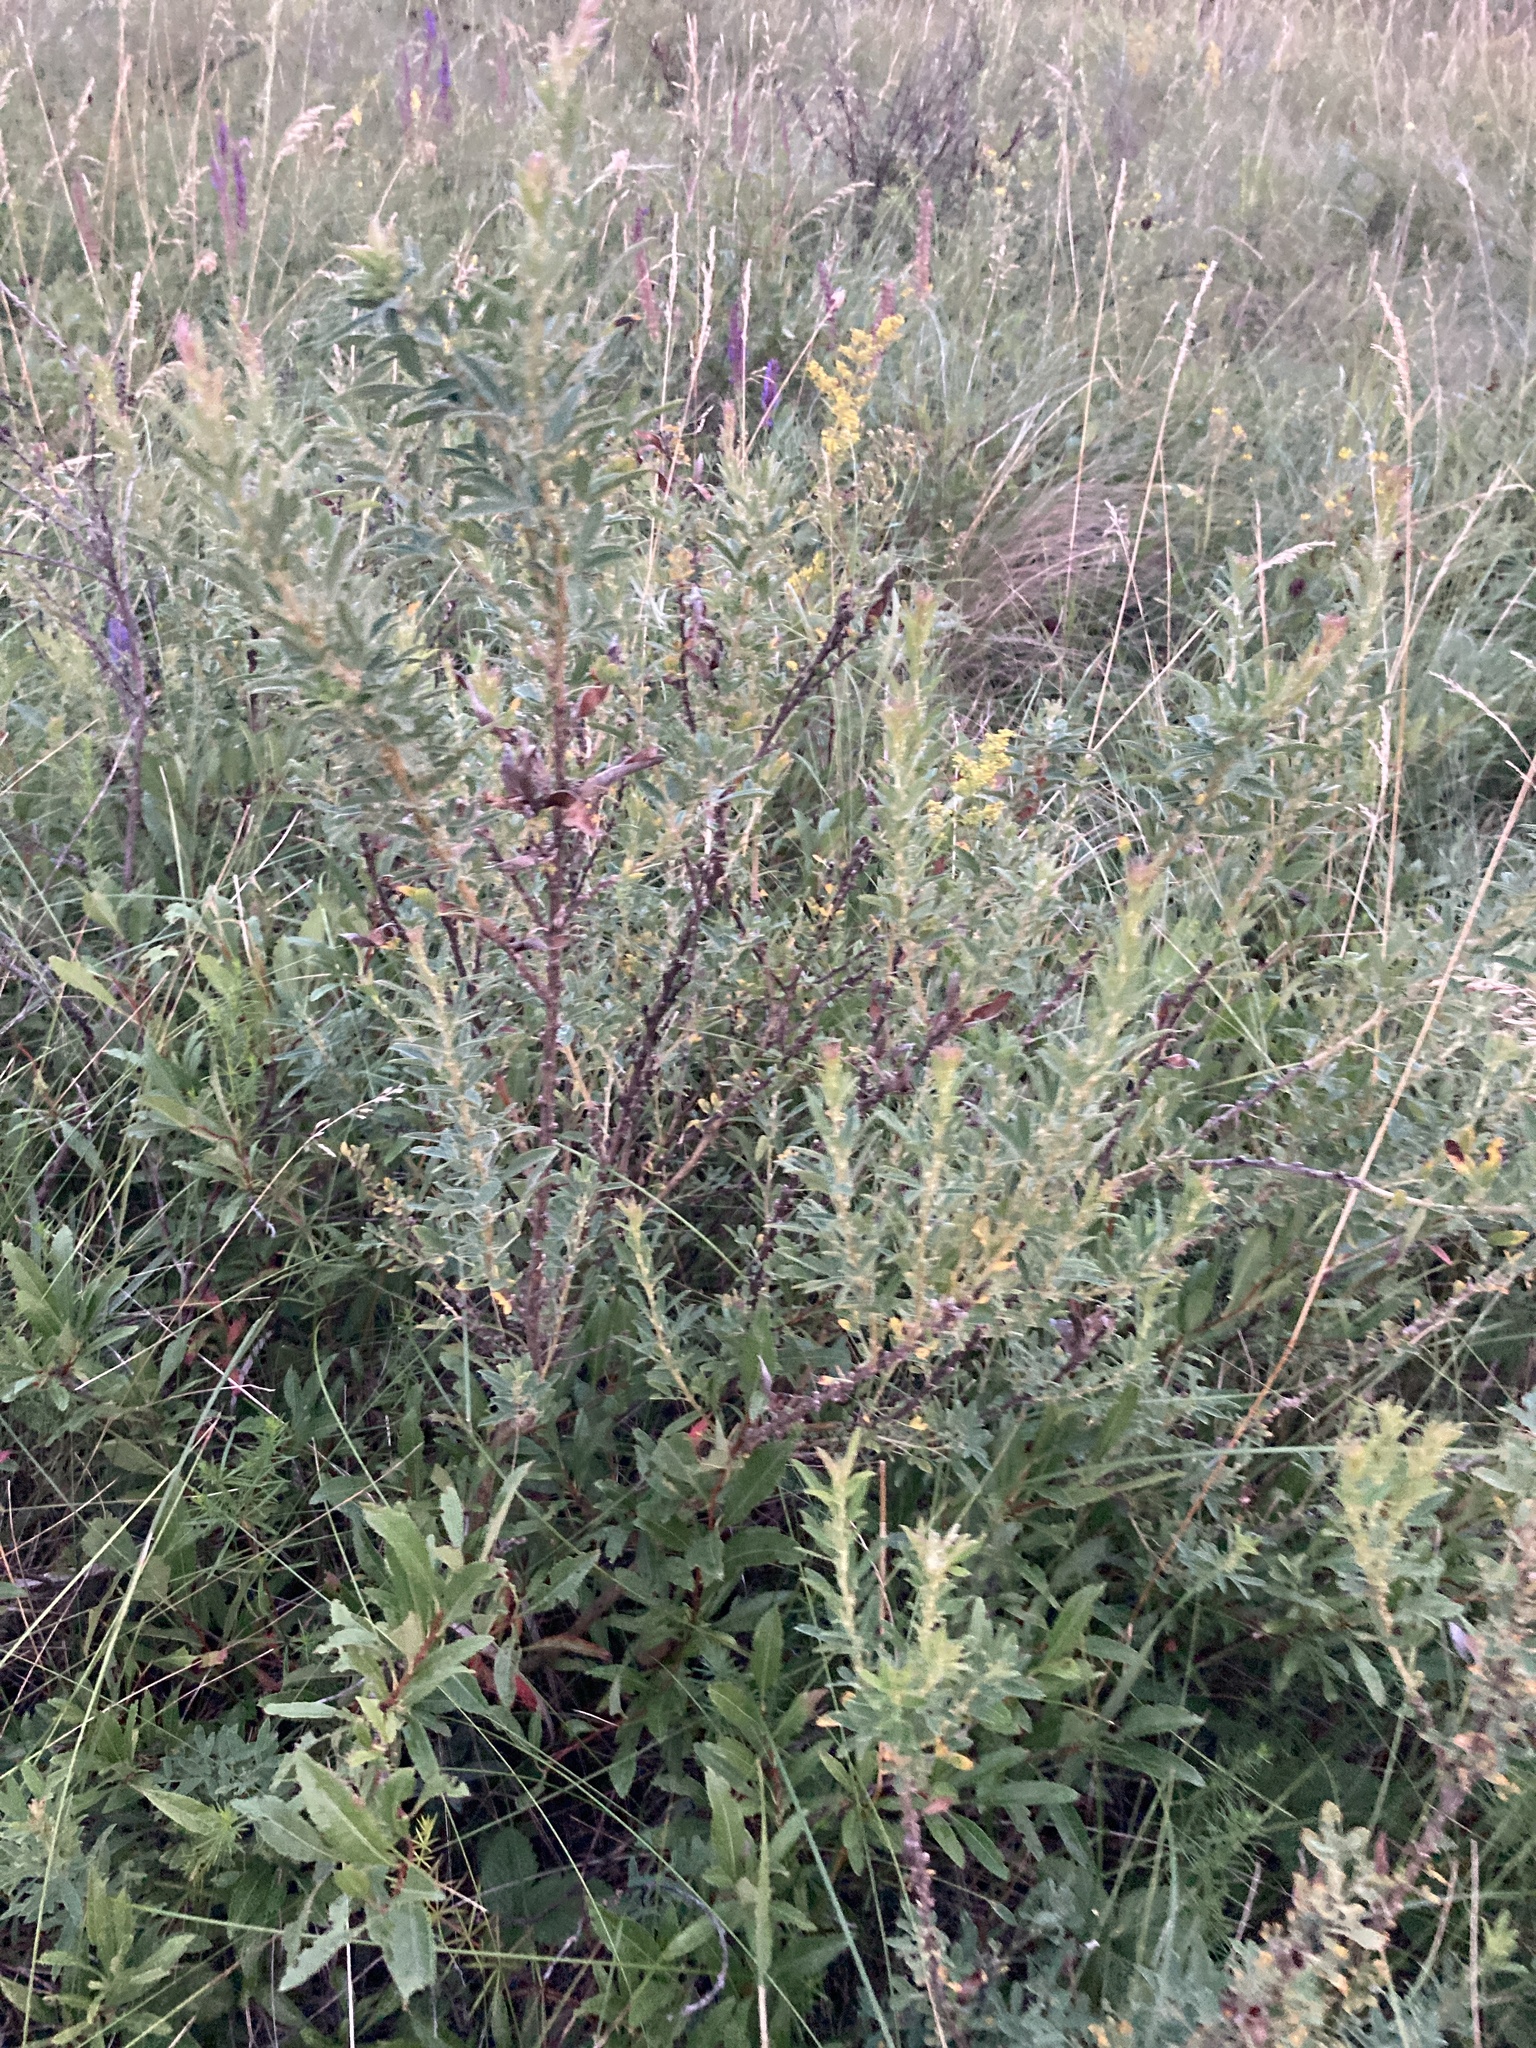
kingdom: Plantae
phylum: Tracheophyta
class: Magnoliopsida
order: Fabales
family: Fabaceae
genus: Chamaecytisus
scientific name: Chamaecytisus ruthenicus
